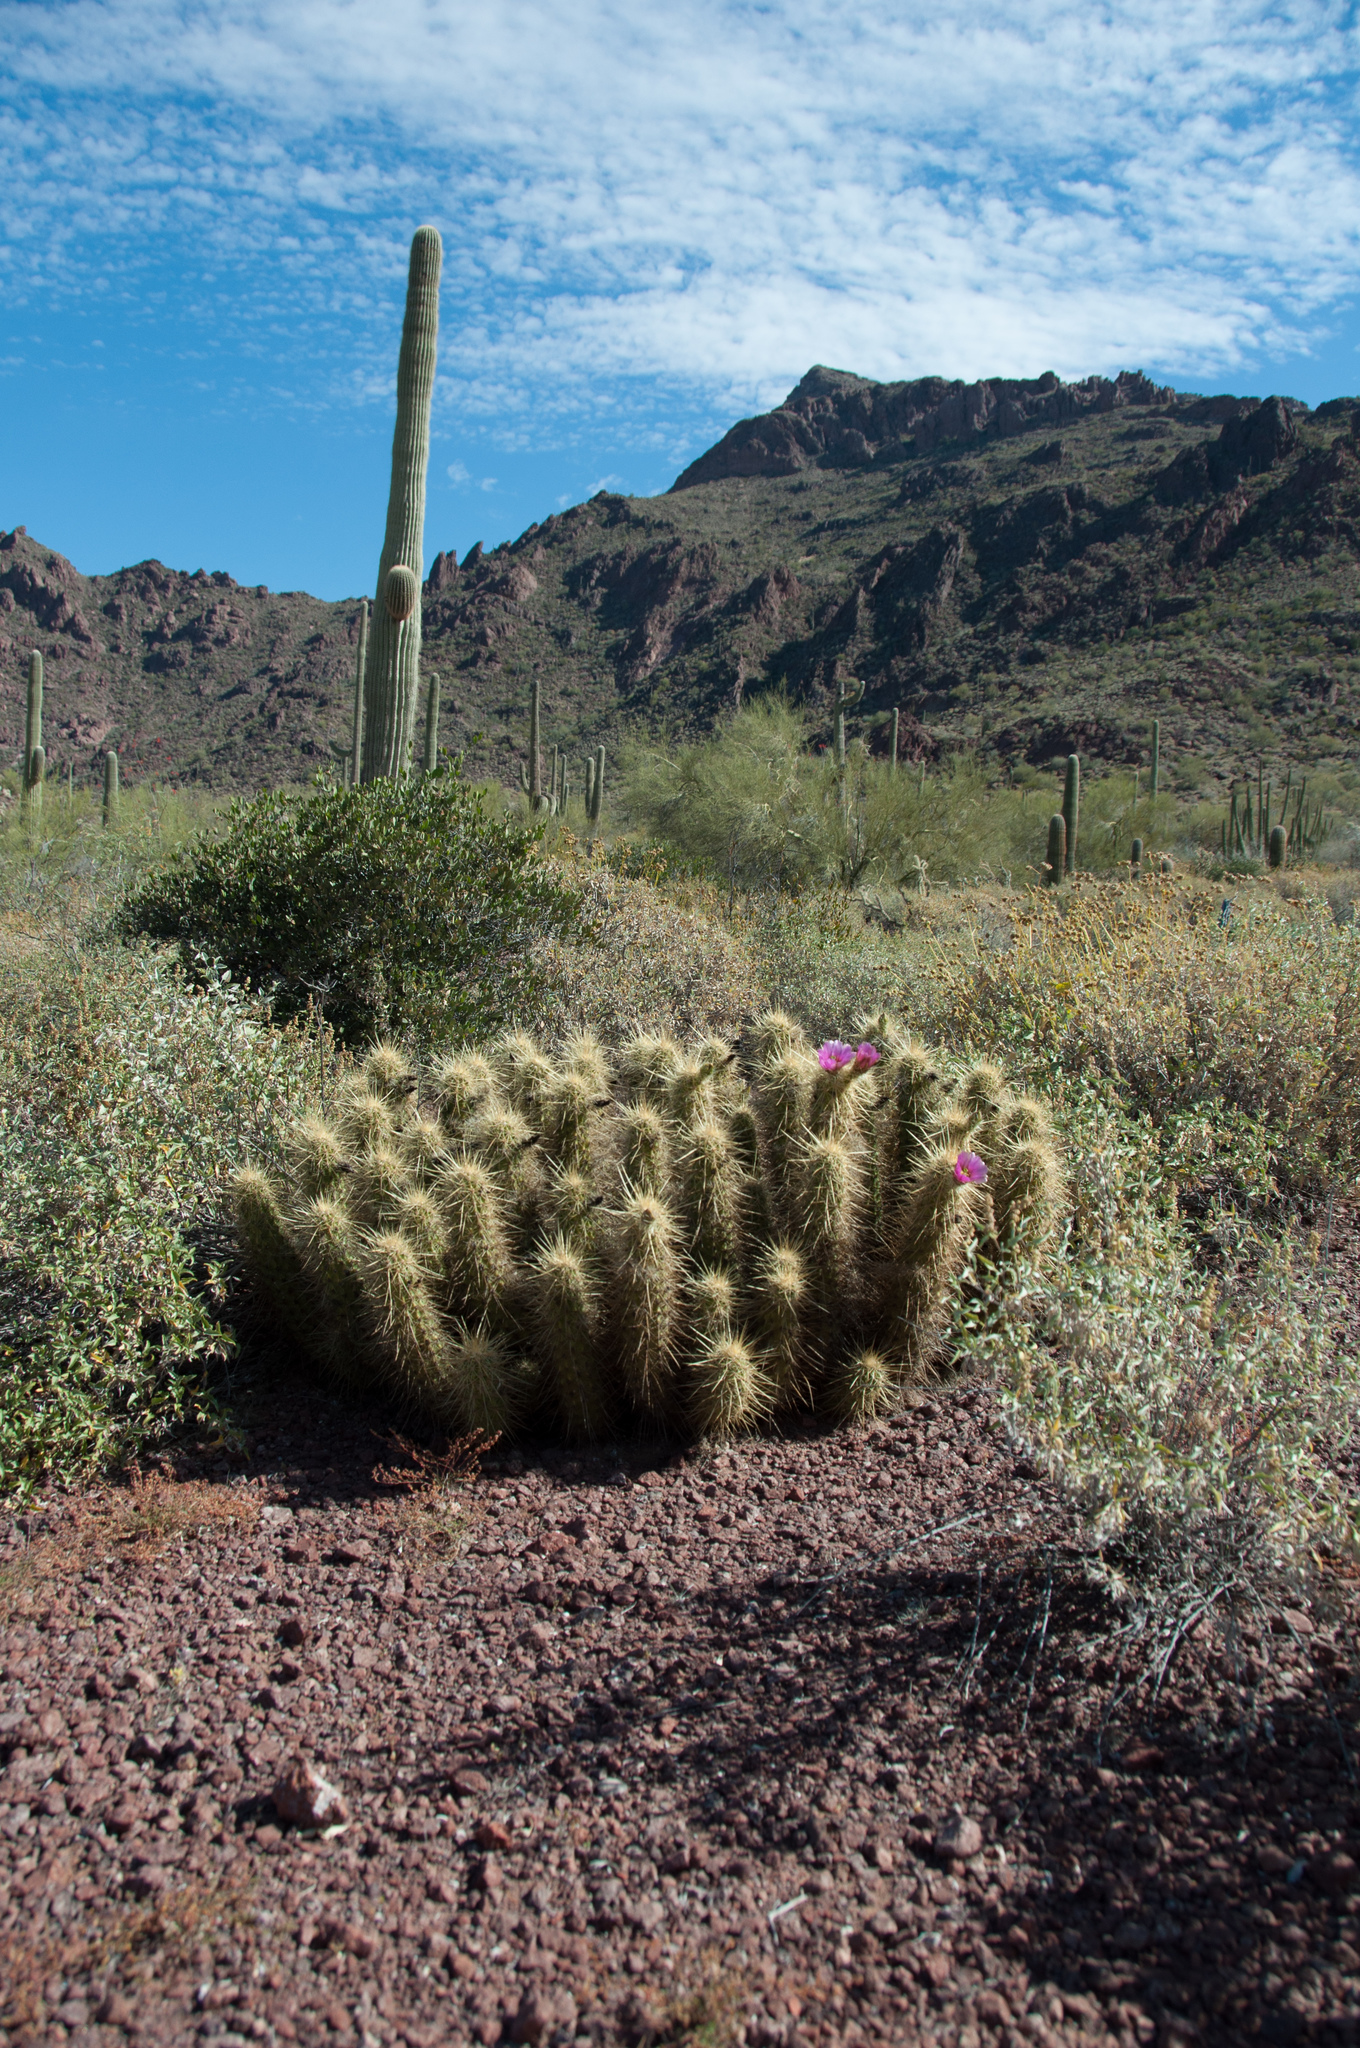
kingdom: Plantae
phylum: Tracheophyta
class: Magnoliopsida
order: Caryophyllales
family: Cactaceae
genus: Echinocereus
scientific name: Echinocereus nicholii
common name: Nichol's hedgehog cactus
